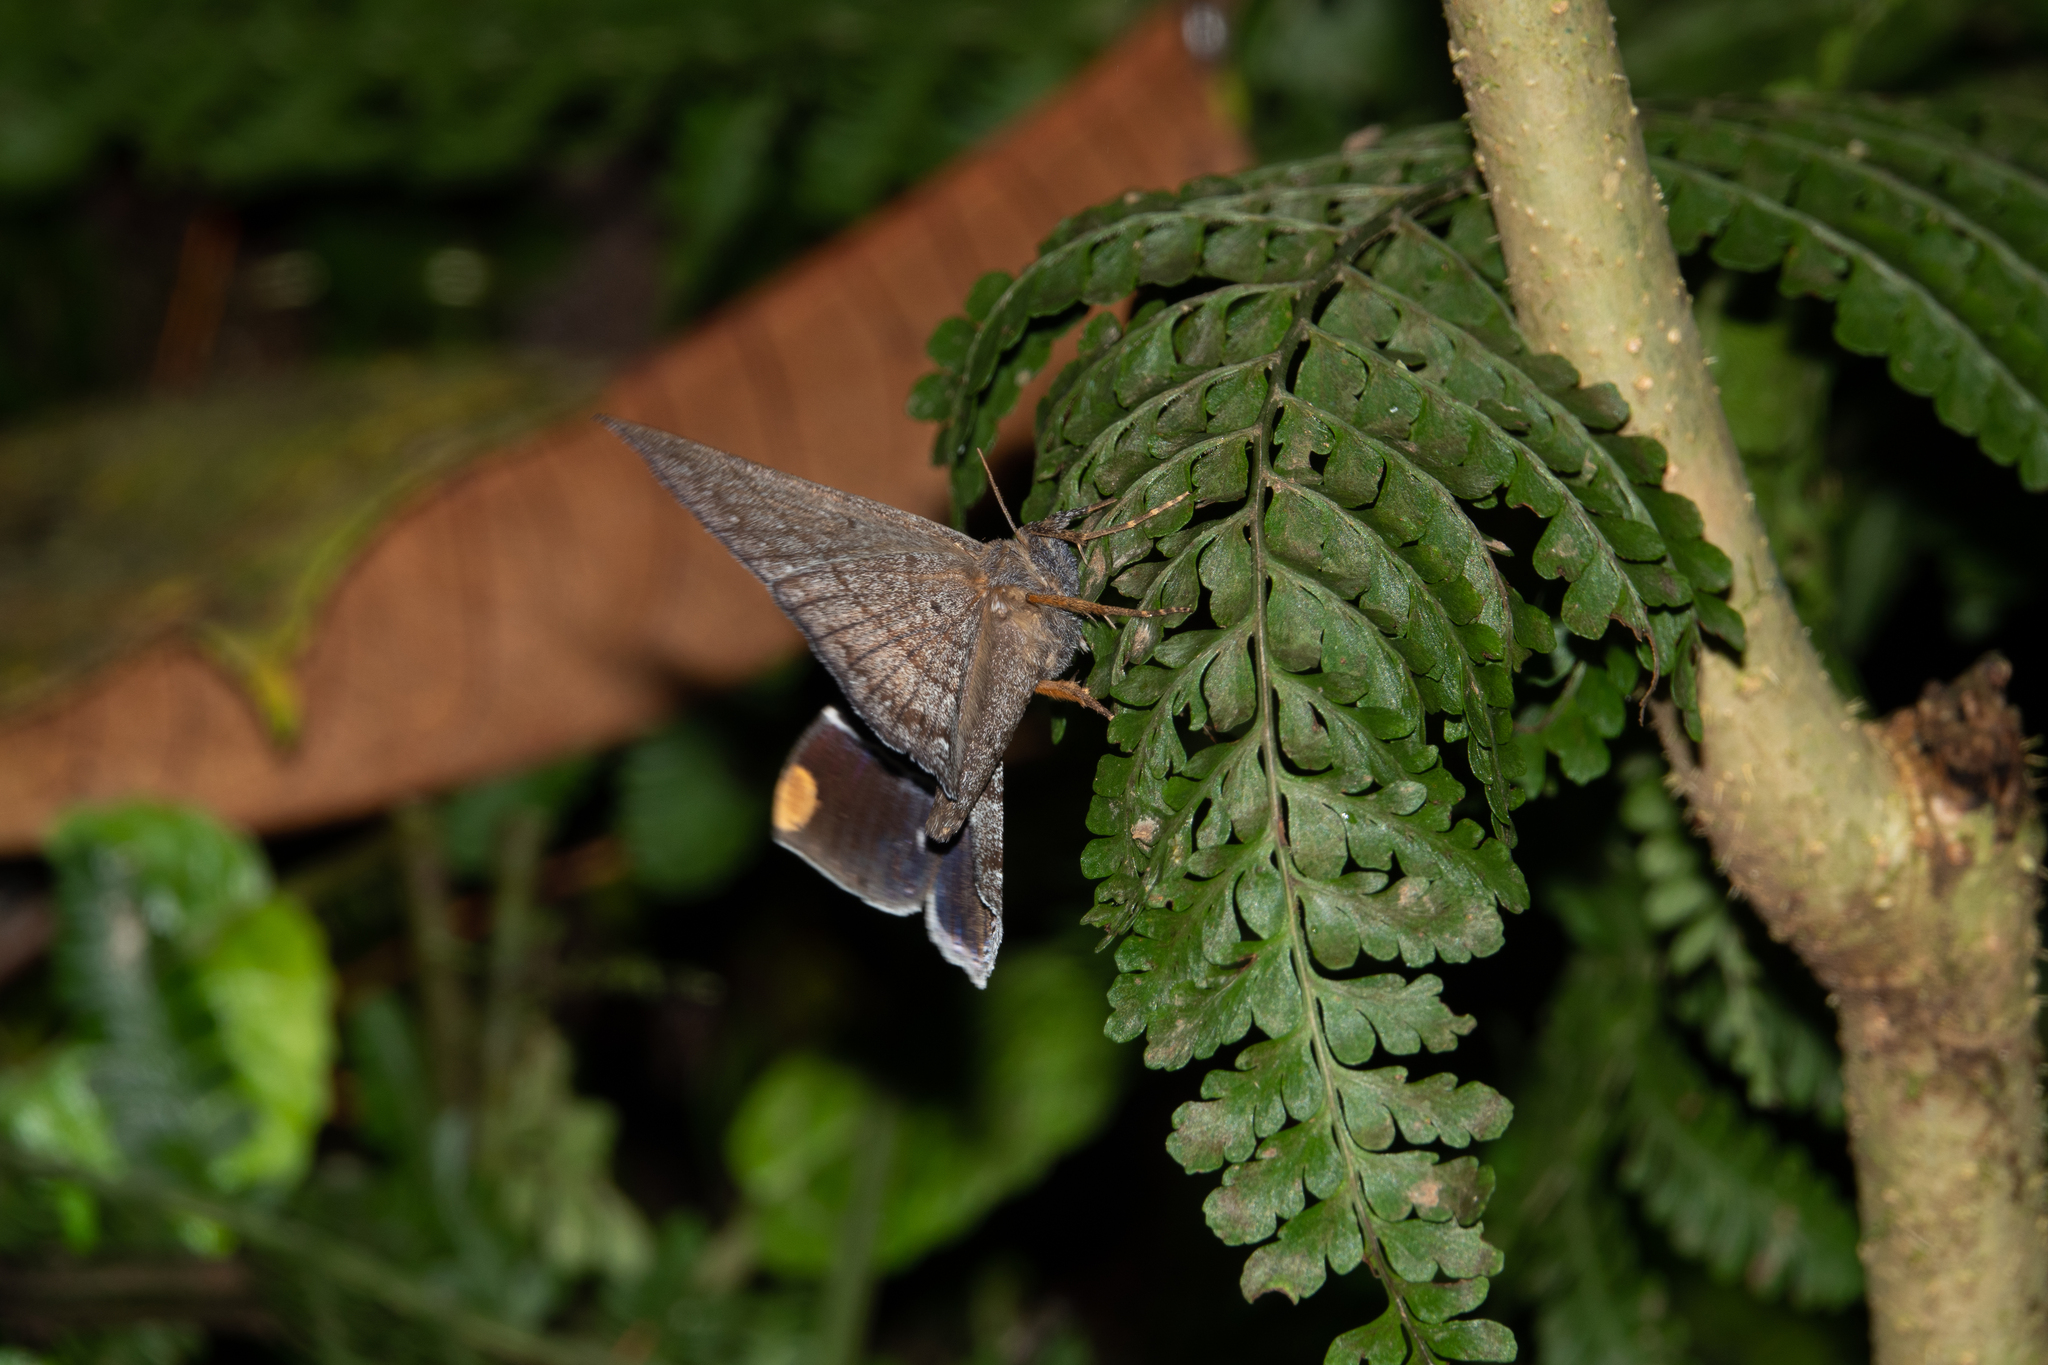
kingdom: Animalia
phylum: Arthropoda
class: Insecta
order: Lepidoptera
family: Erebidae
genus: Hemeroblemma
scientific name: Hemeroblemma
